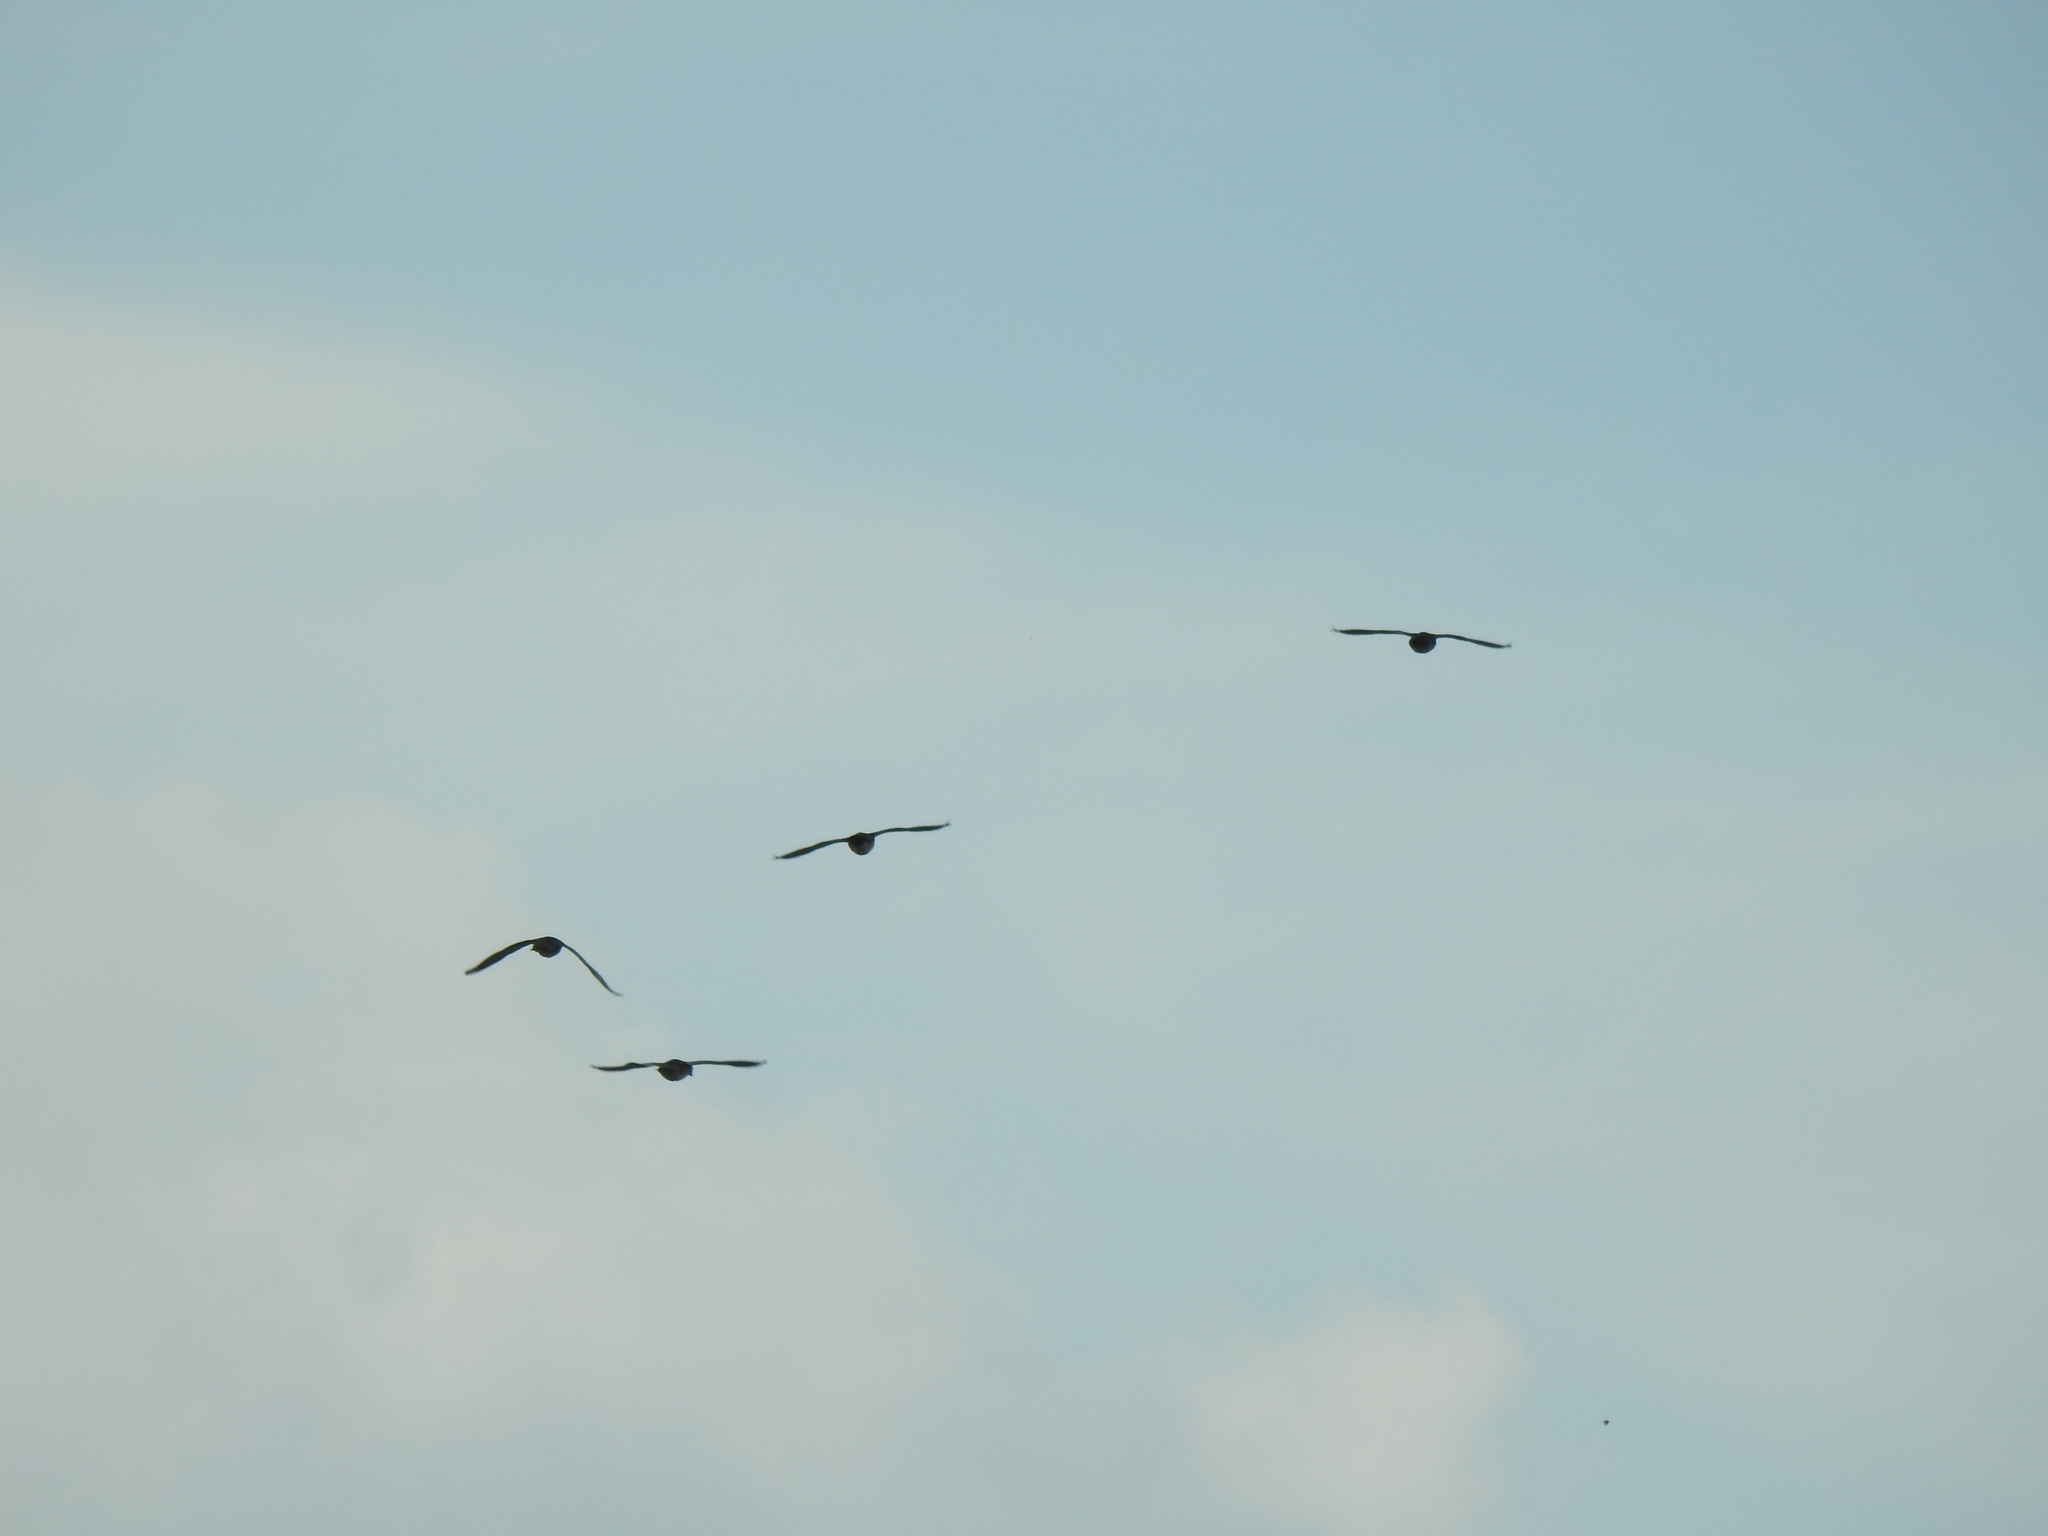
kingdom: Animalia
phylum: Chordata
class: Aves
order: Anseriformes
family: Anatidae
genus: Aix
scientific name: Aix sponsa
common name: Wood duck
